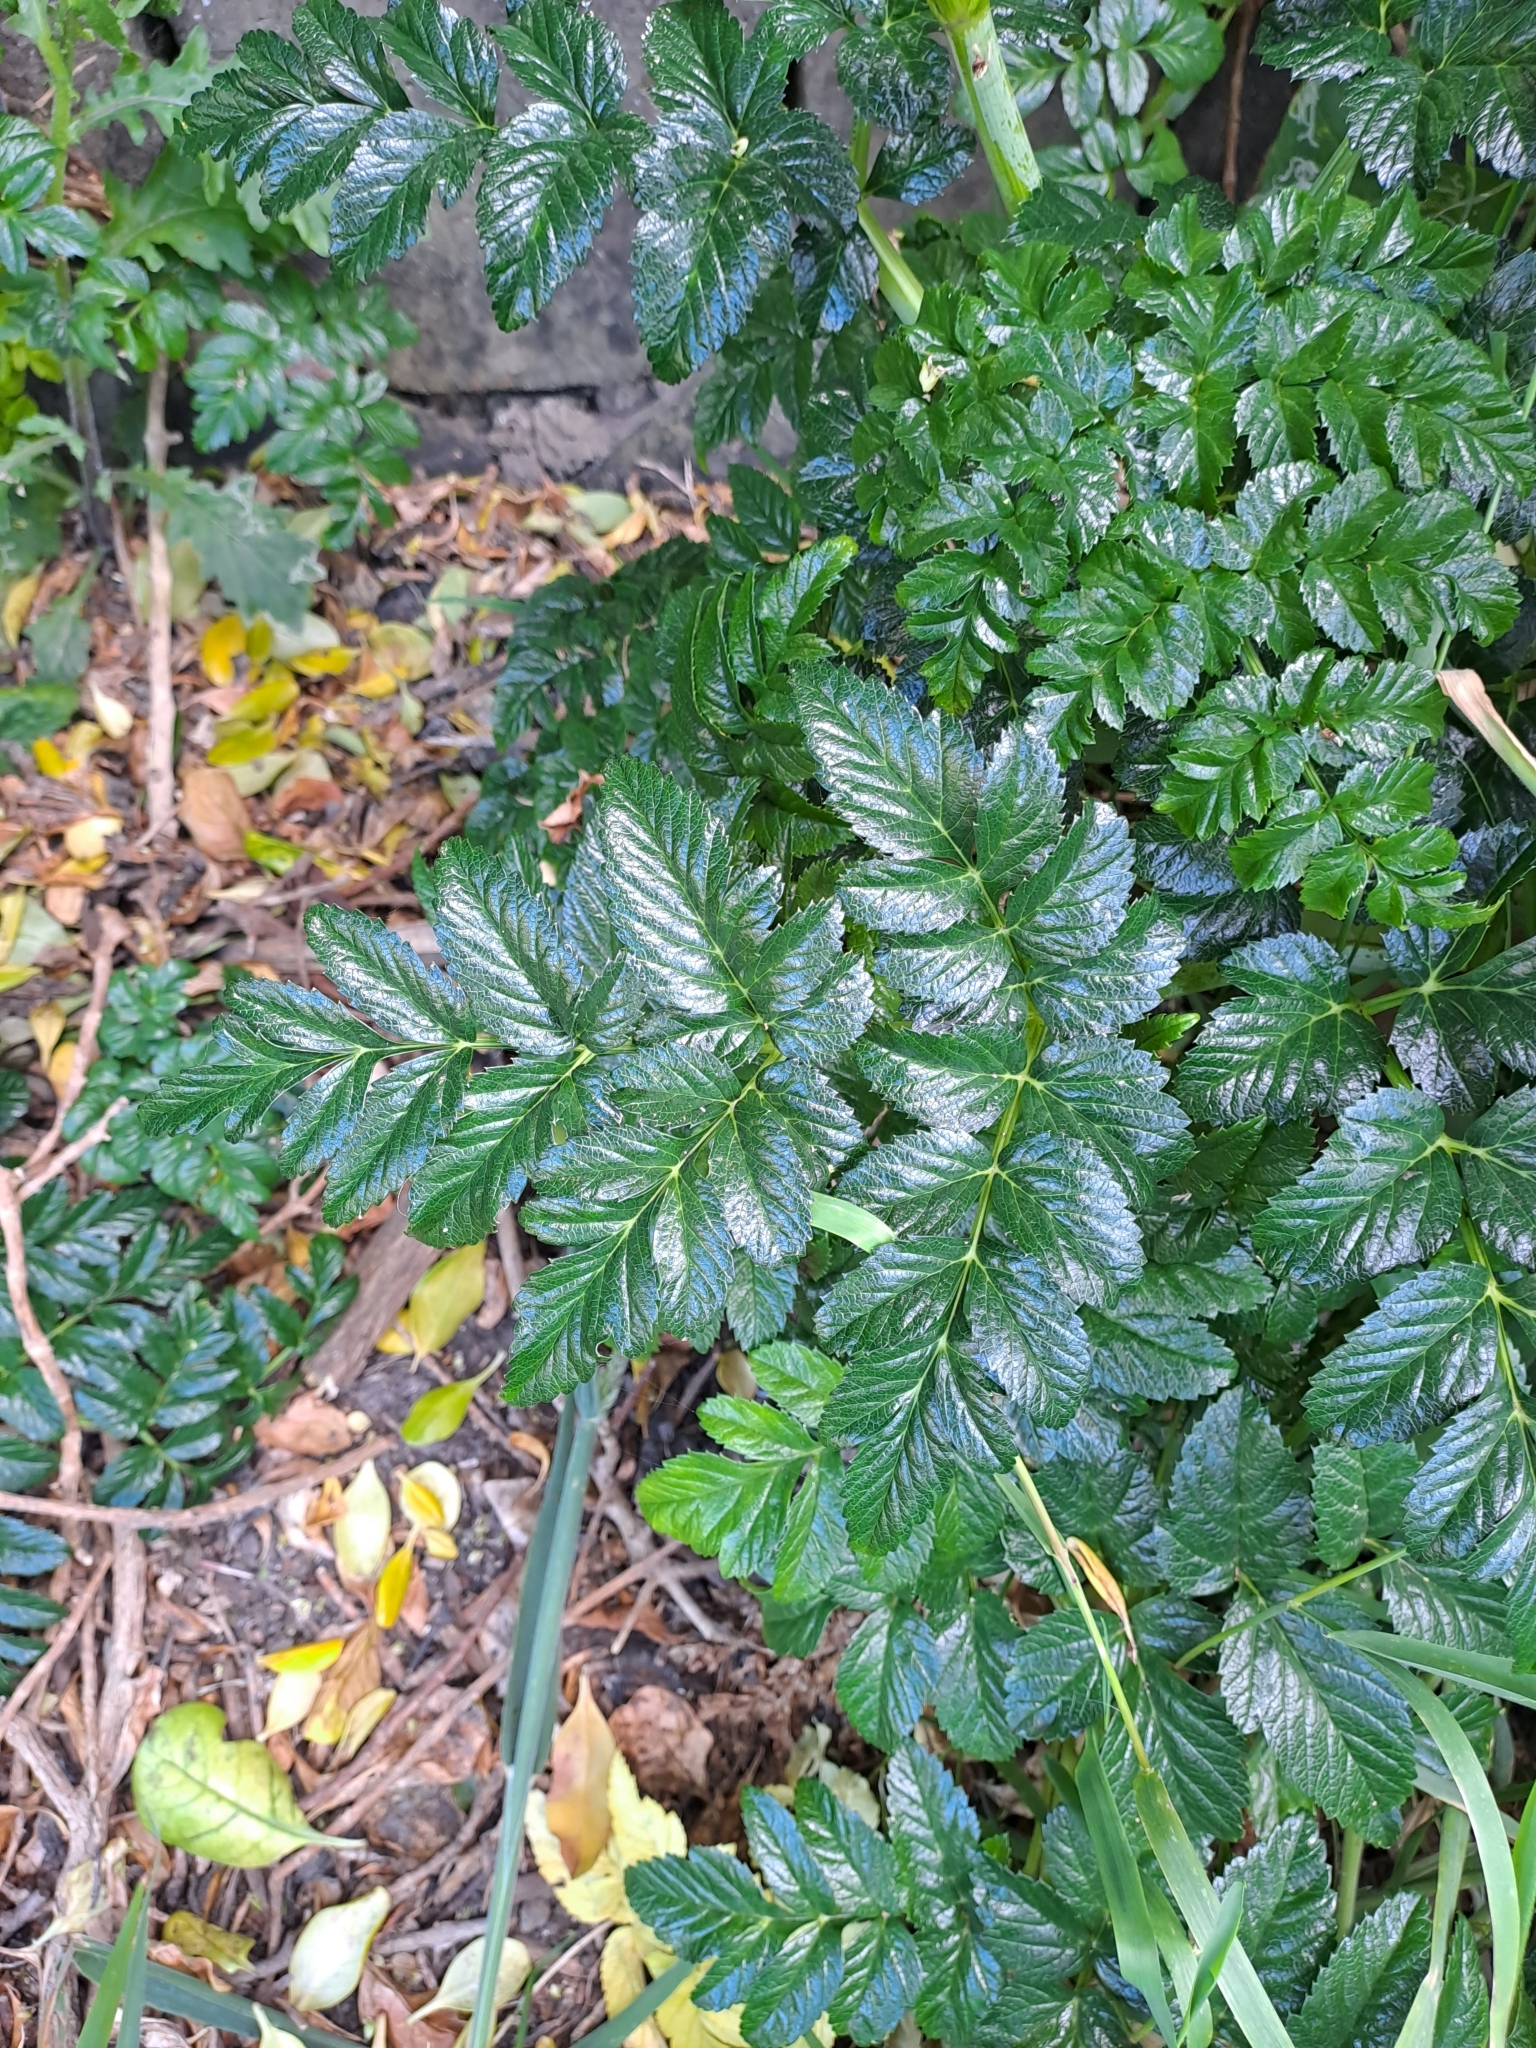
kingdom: Plantae
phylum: Tracheophyta
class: Magnoliopsida
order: Apiales
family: Apiaceae
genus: Angelica
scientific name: Angelica pachycarpa
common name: Portuguese angelica
